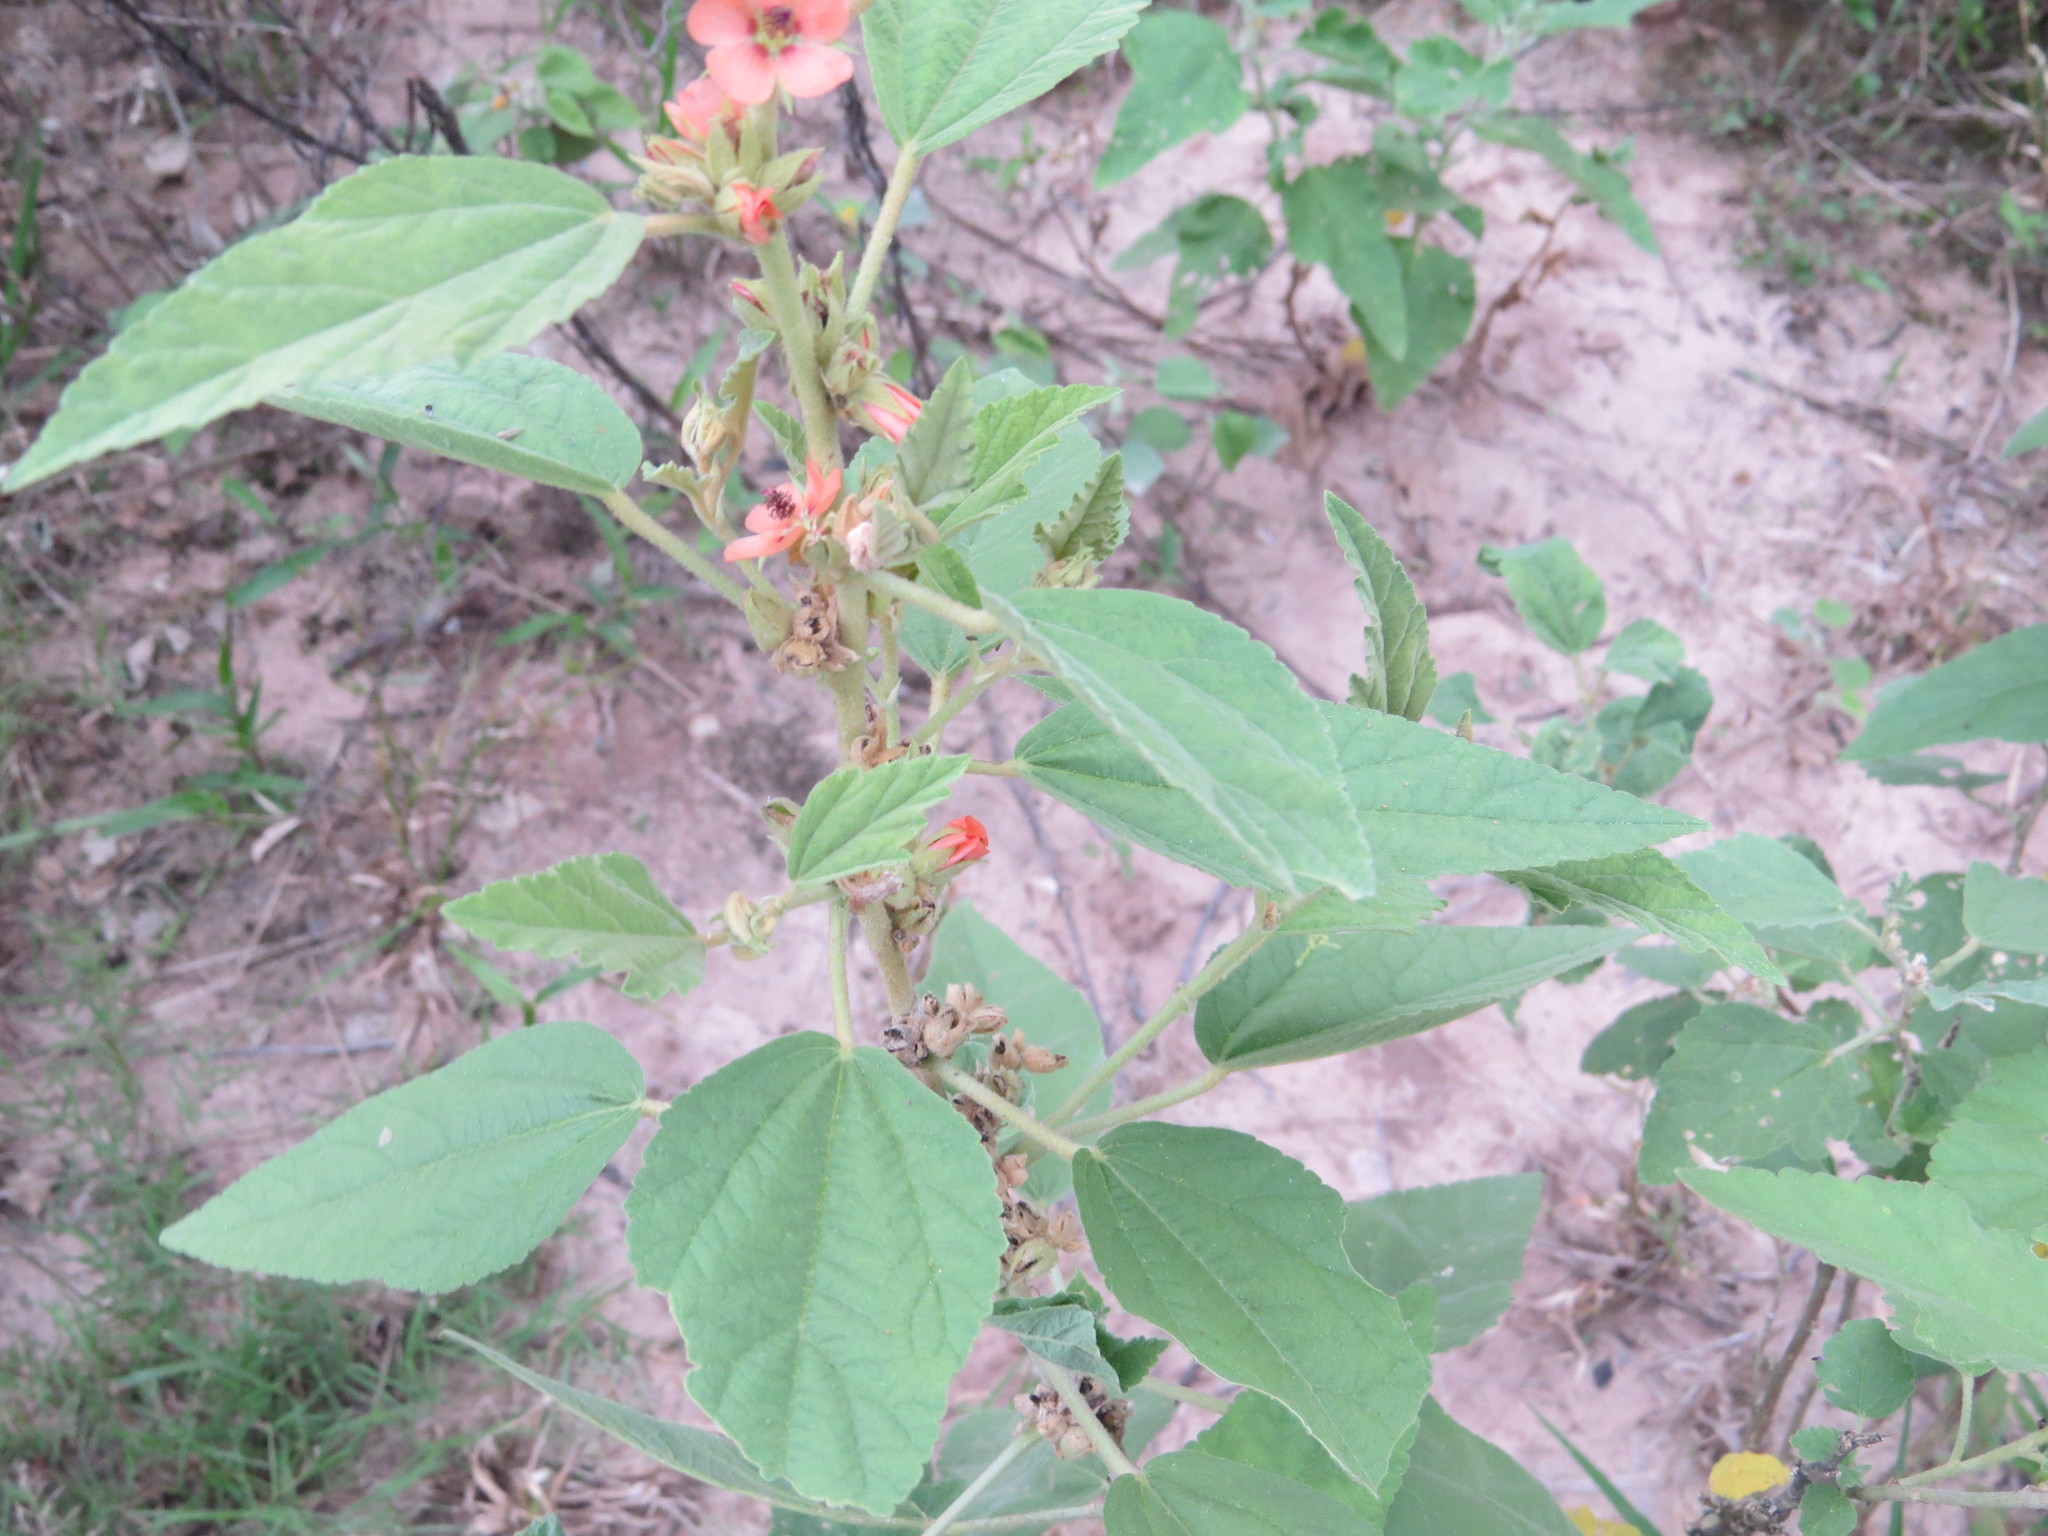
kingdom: Plantae
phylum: Tracheophyta
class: Magnoliopsida
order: Malvales
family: Malvaceae
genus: Sphaeralcea
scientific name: Sphaeralcea bonariensis
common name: Latin globemallow
